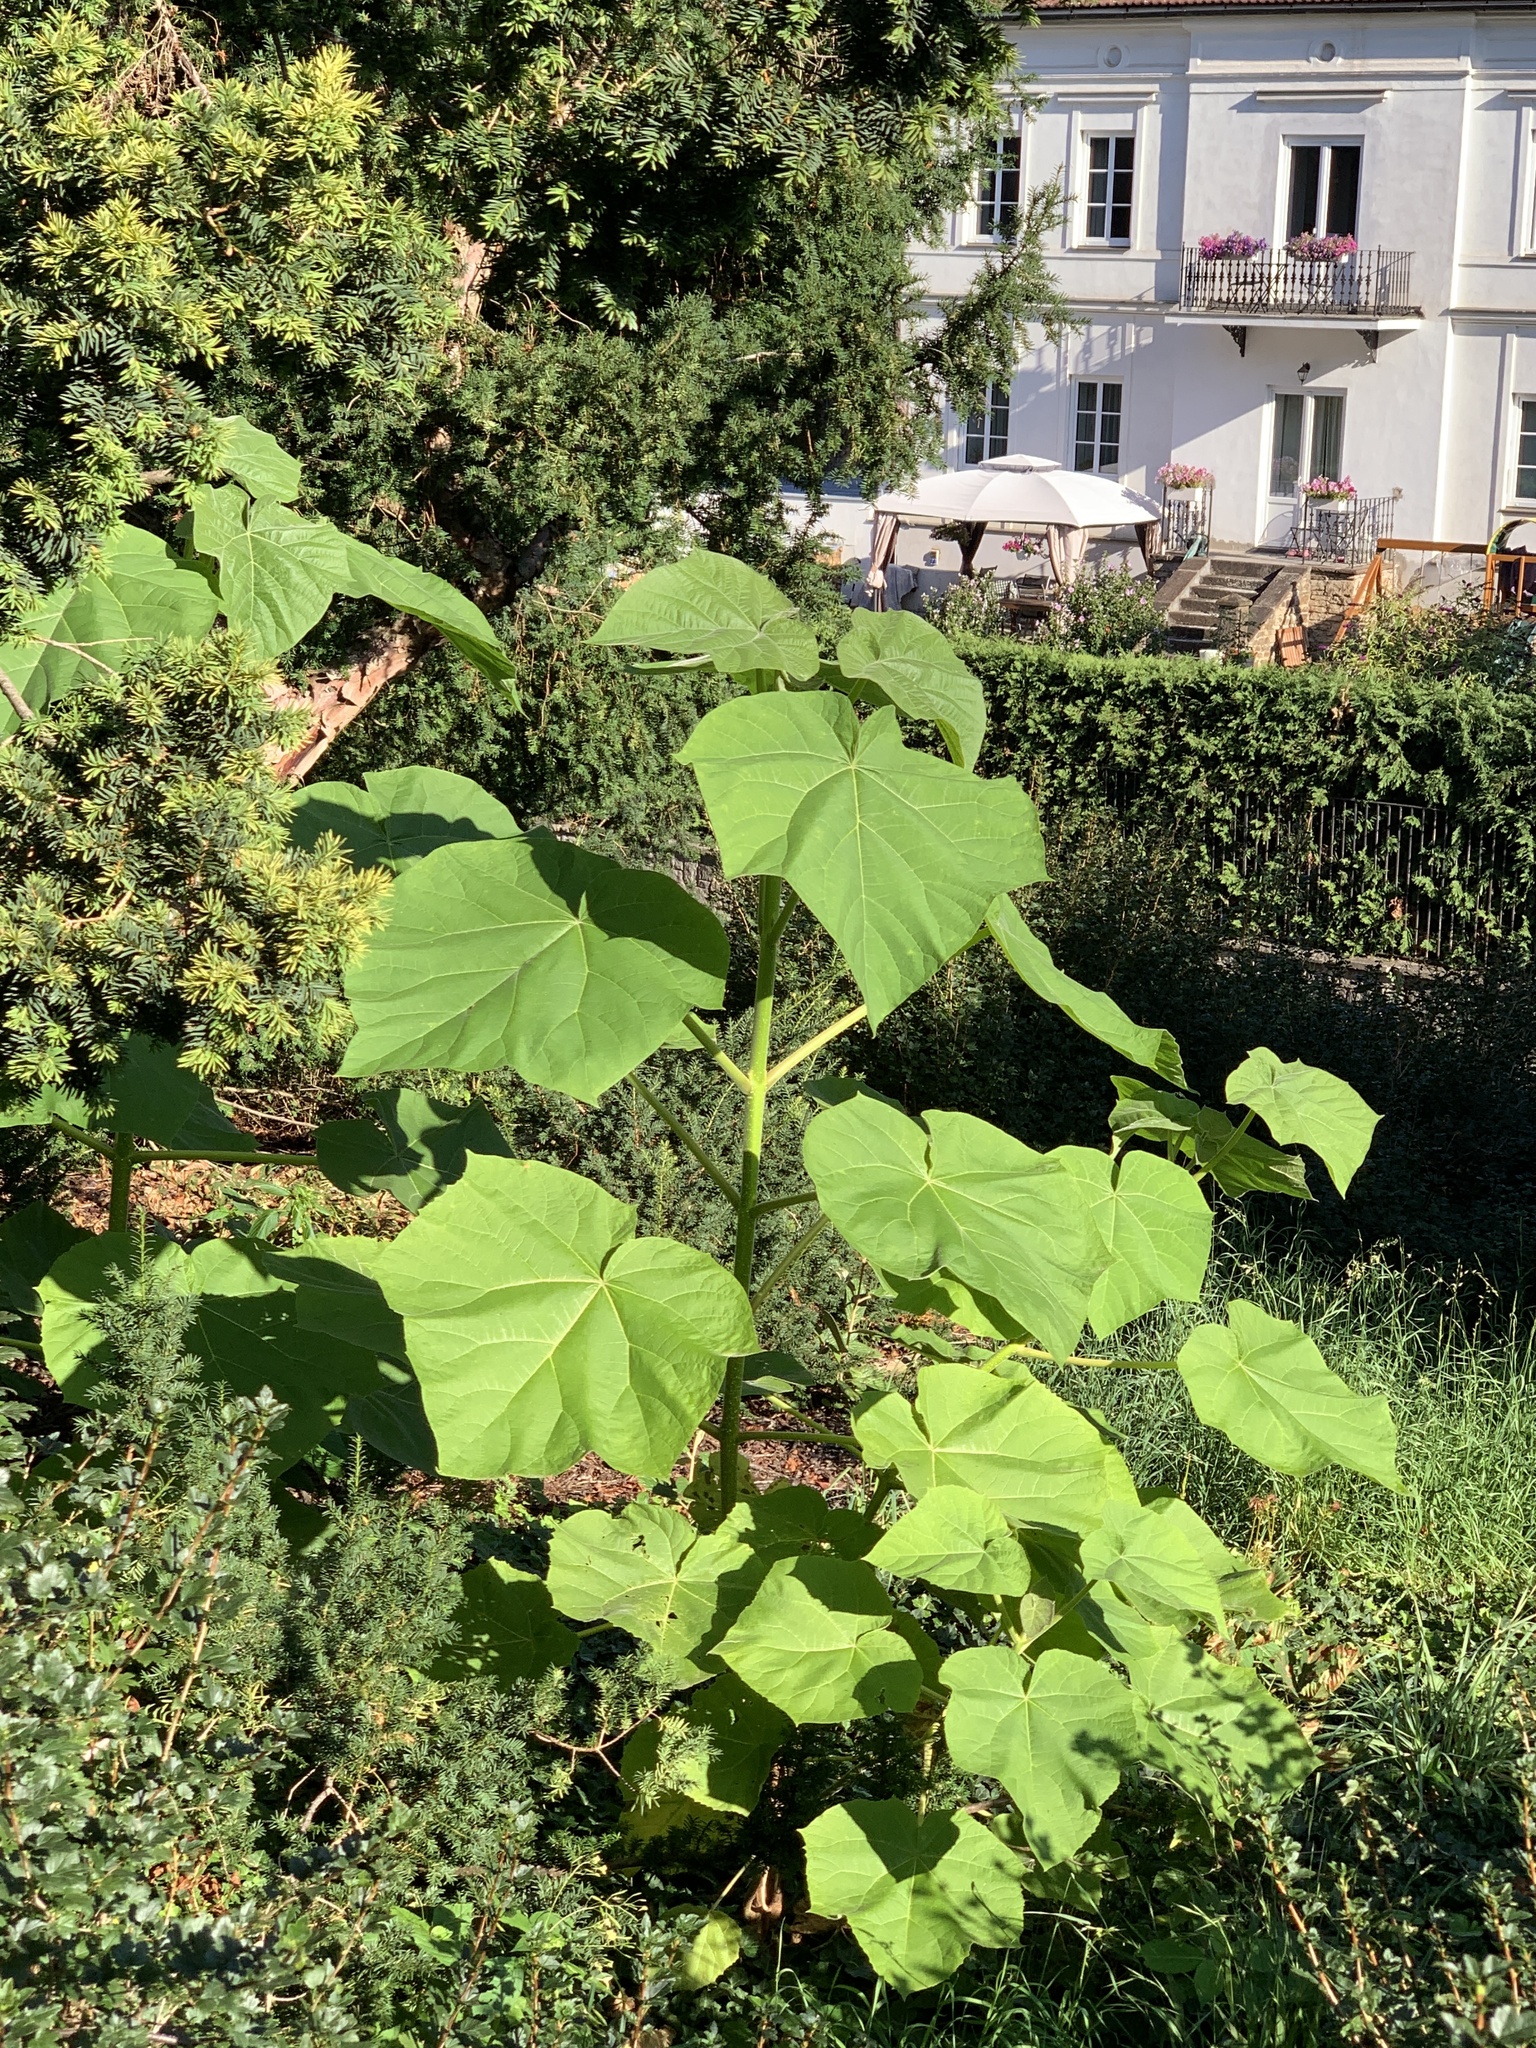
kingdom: Plantae
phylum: Tracheophyta
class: Magnoliopsida
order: Lamiales
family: Paulowniaceae
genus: Paulownia
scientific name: Paulownia tomentosa
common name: Foxglove-tree
